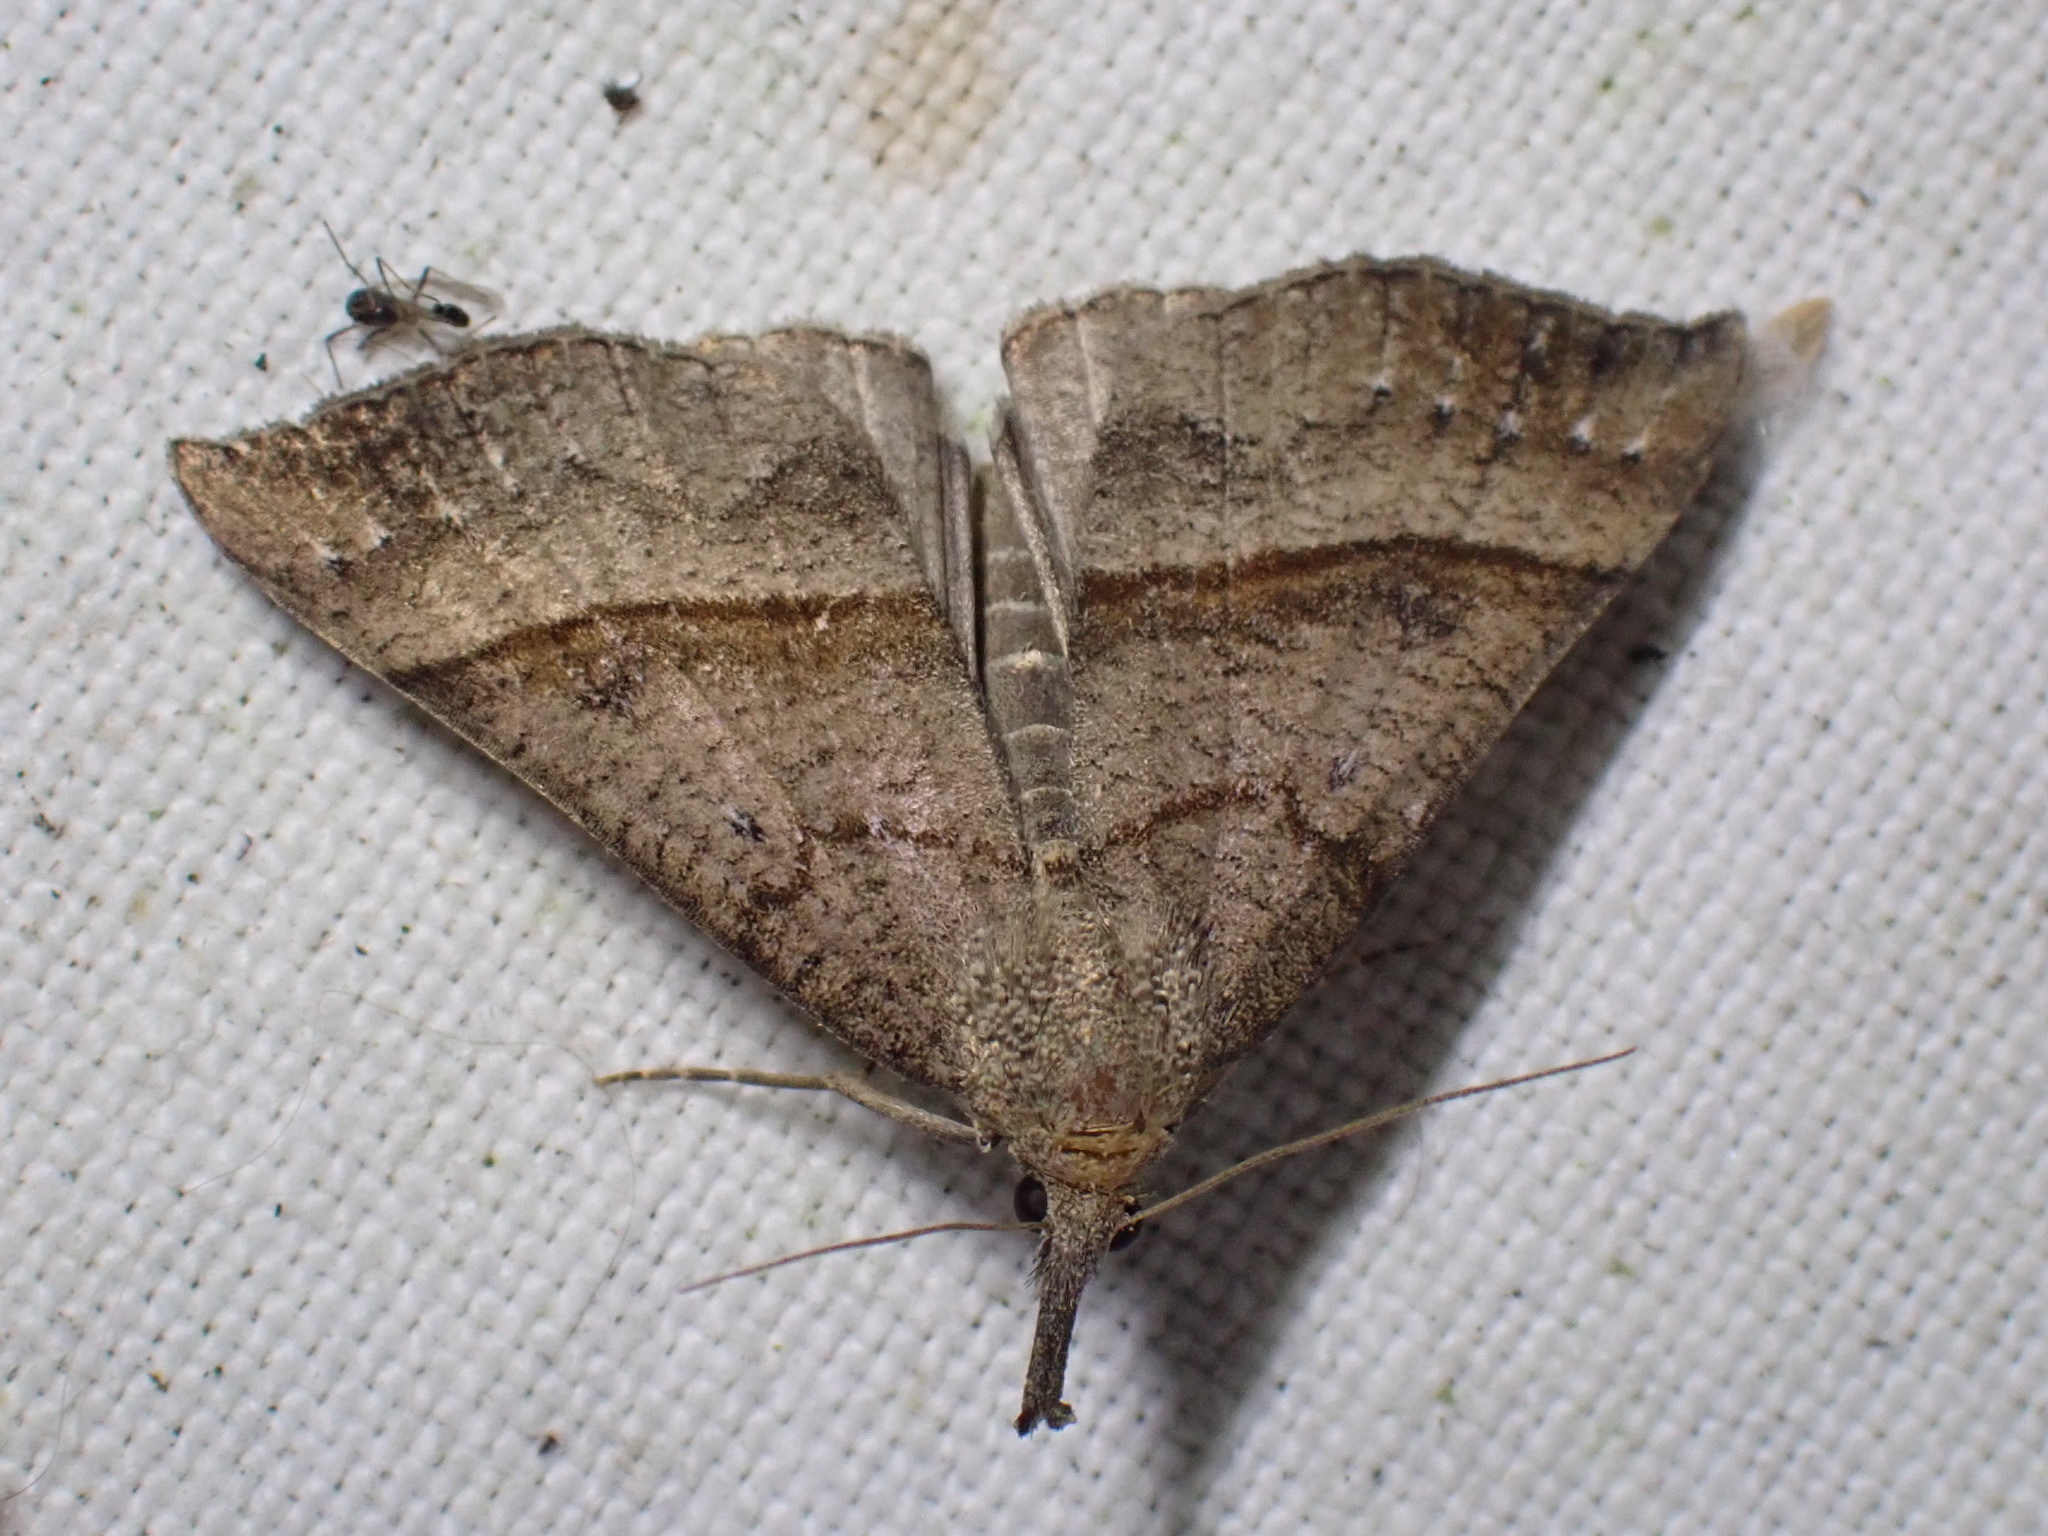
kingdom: Animalia
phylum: Arthropoda
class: Insecta
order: Lepidoptera
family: Erebidae
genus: Hypena
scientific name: Hypena proboscidalis
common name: Snout
